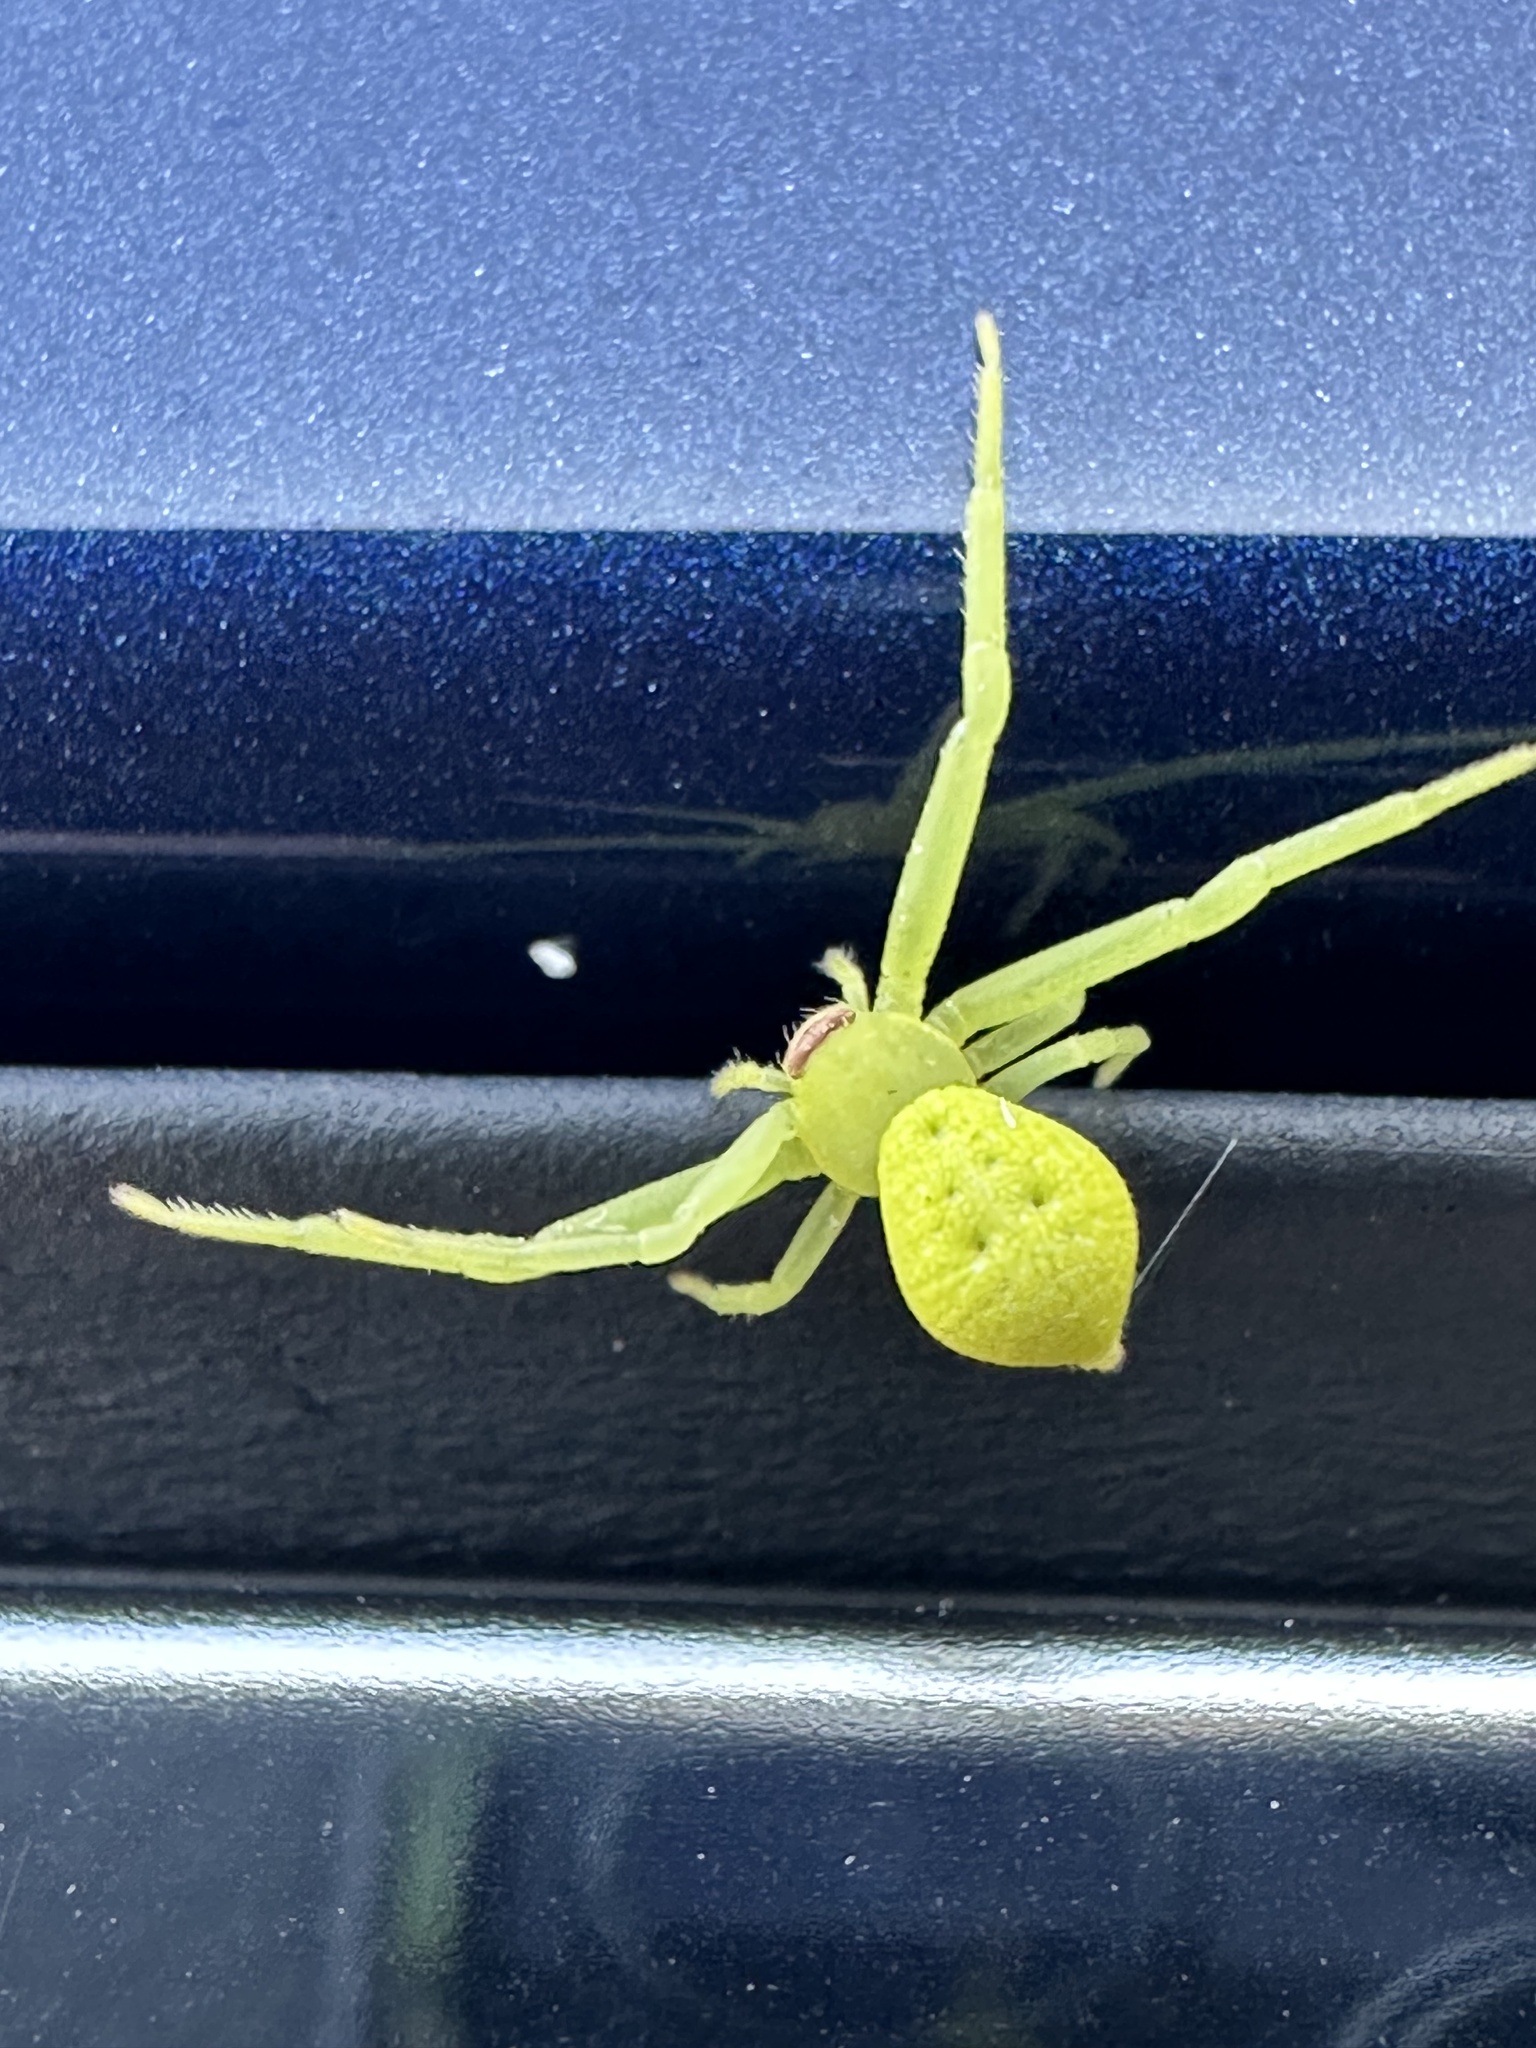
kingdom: Animalia
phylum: Arthropoda
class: Arachnida
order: Araneae
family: Thomisidae
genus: Misumessus
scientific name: Misumessus tamiami
